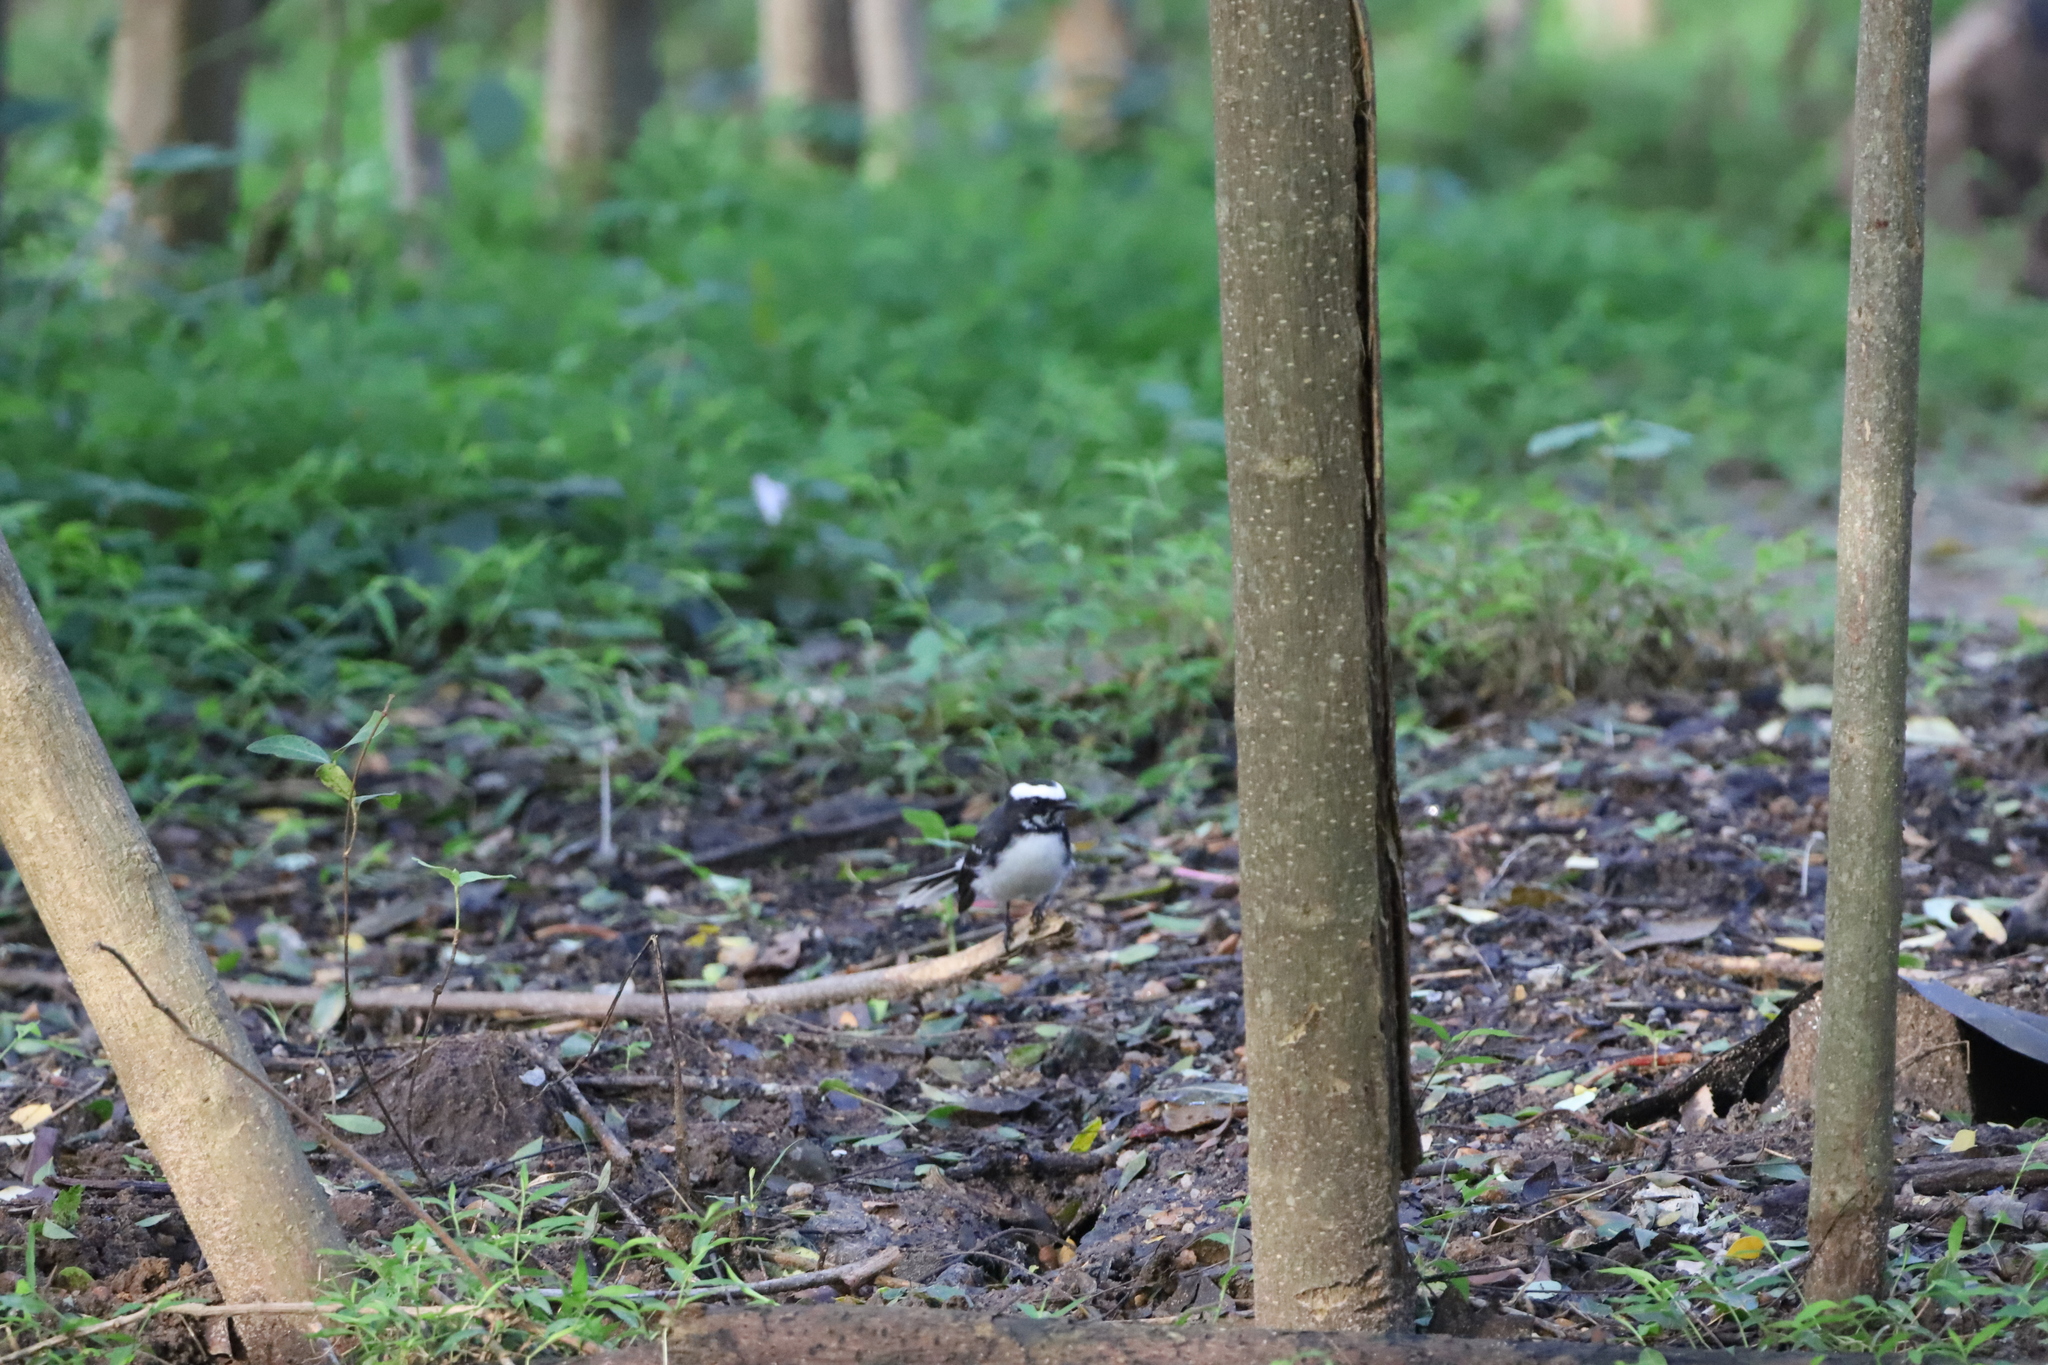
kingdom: Animalia
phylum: Chordata
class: Aves
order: Passeriformes
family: Rhipiduridae
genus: Rhipidura
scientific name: Rhipidura aureola
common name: White-browed fantail
